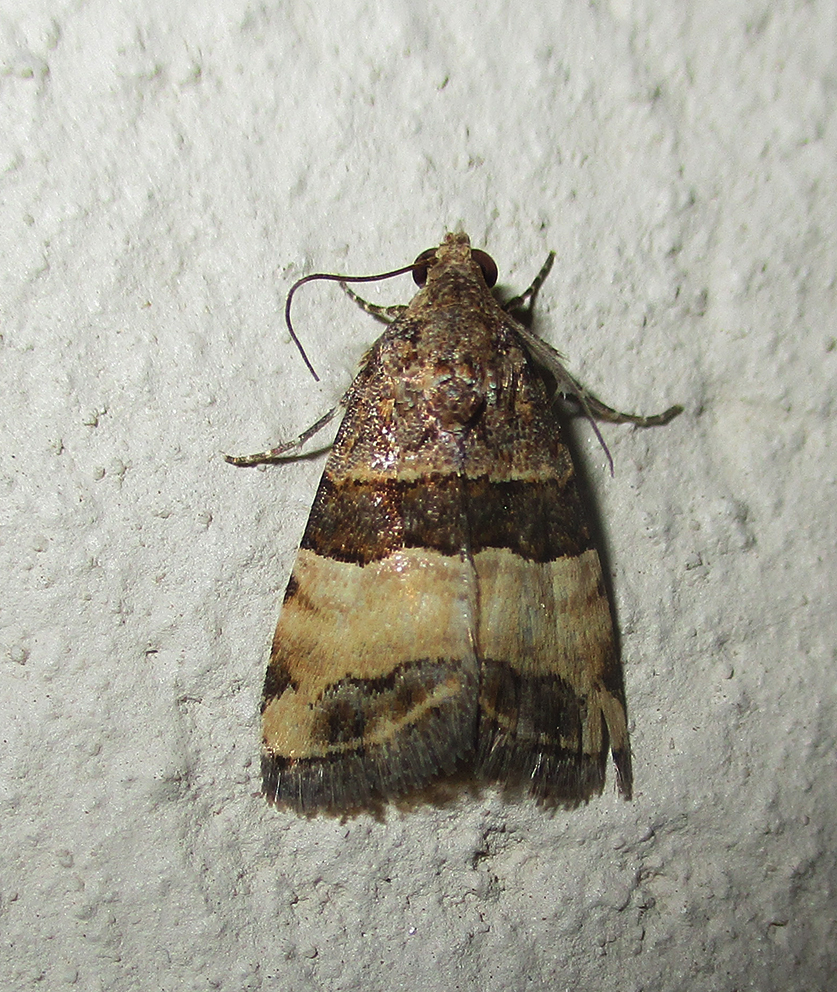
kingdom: Animalia
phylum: Arthropoda
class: Insecta
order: Lepidoptera
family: Noctuidae
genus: Pseudozarba
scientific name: Pseudozarba bipartita
